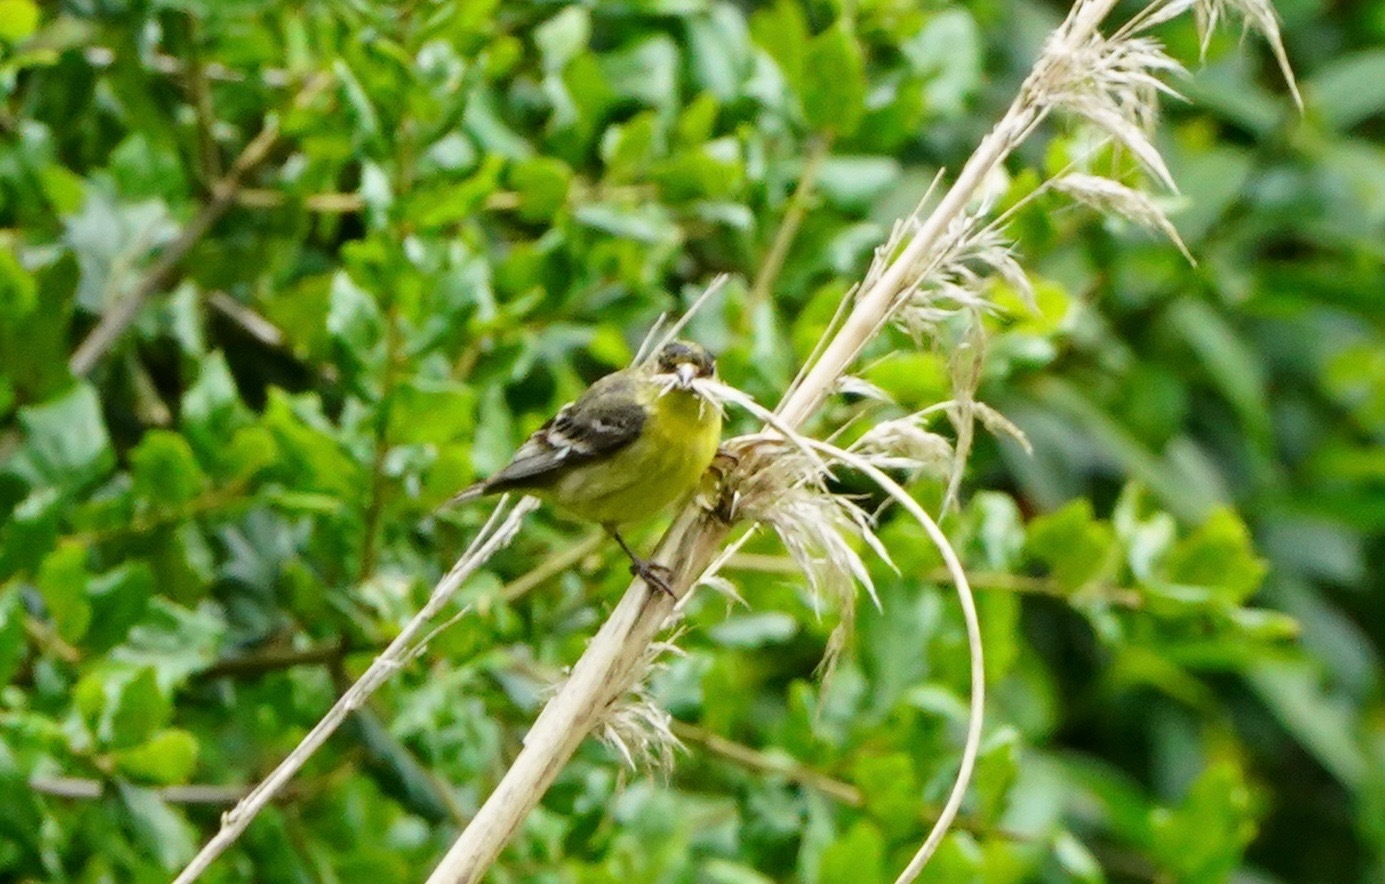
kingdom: Animalia
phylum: Chordata
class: Aves
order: Passeriformes
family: Fringillidae
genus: Spinus
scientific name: Spinus psaltria
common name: Lesser goldfinch
